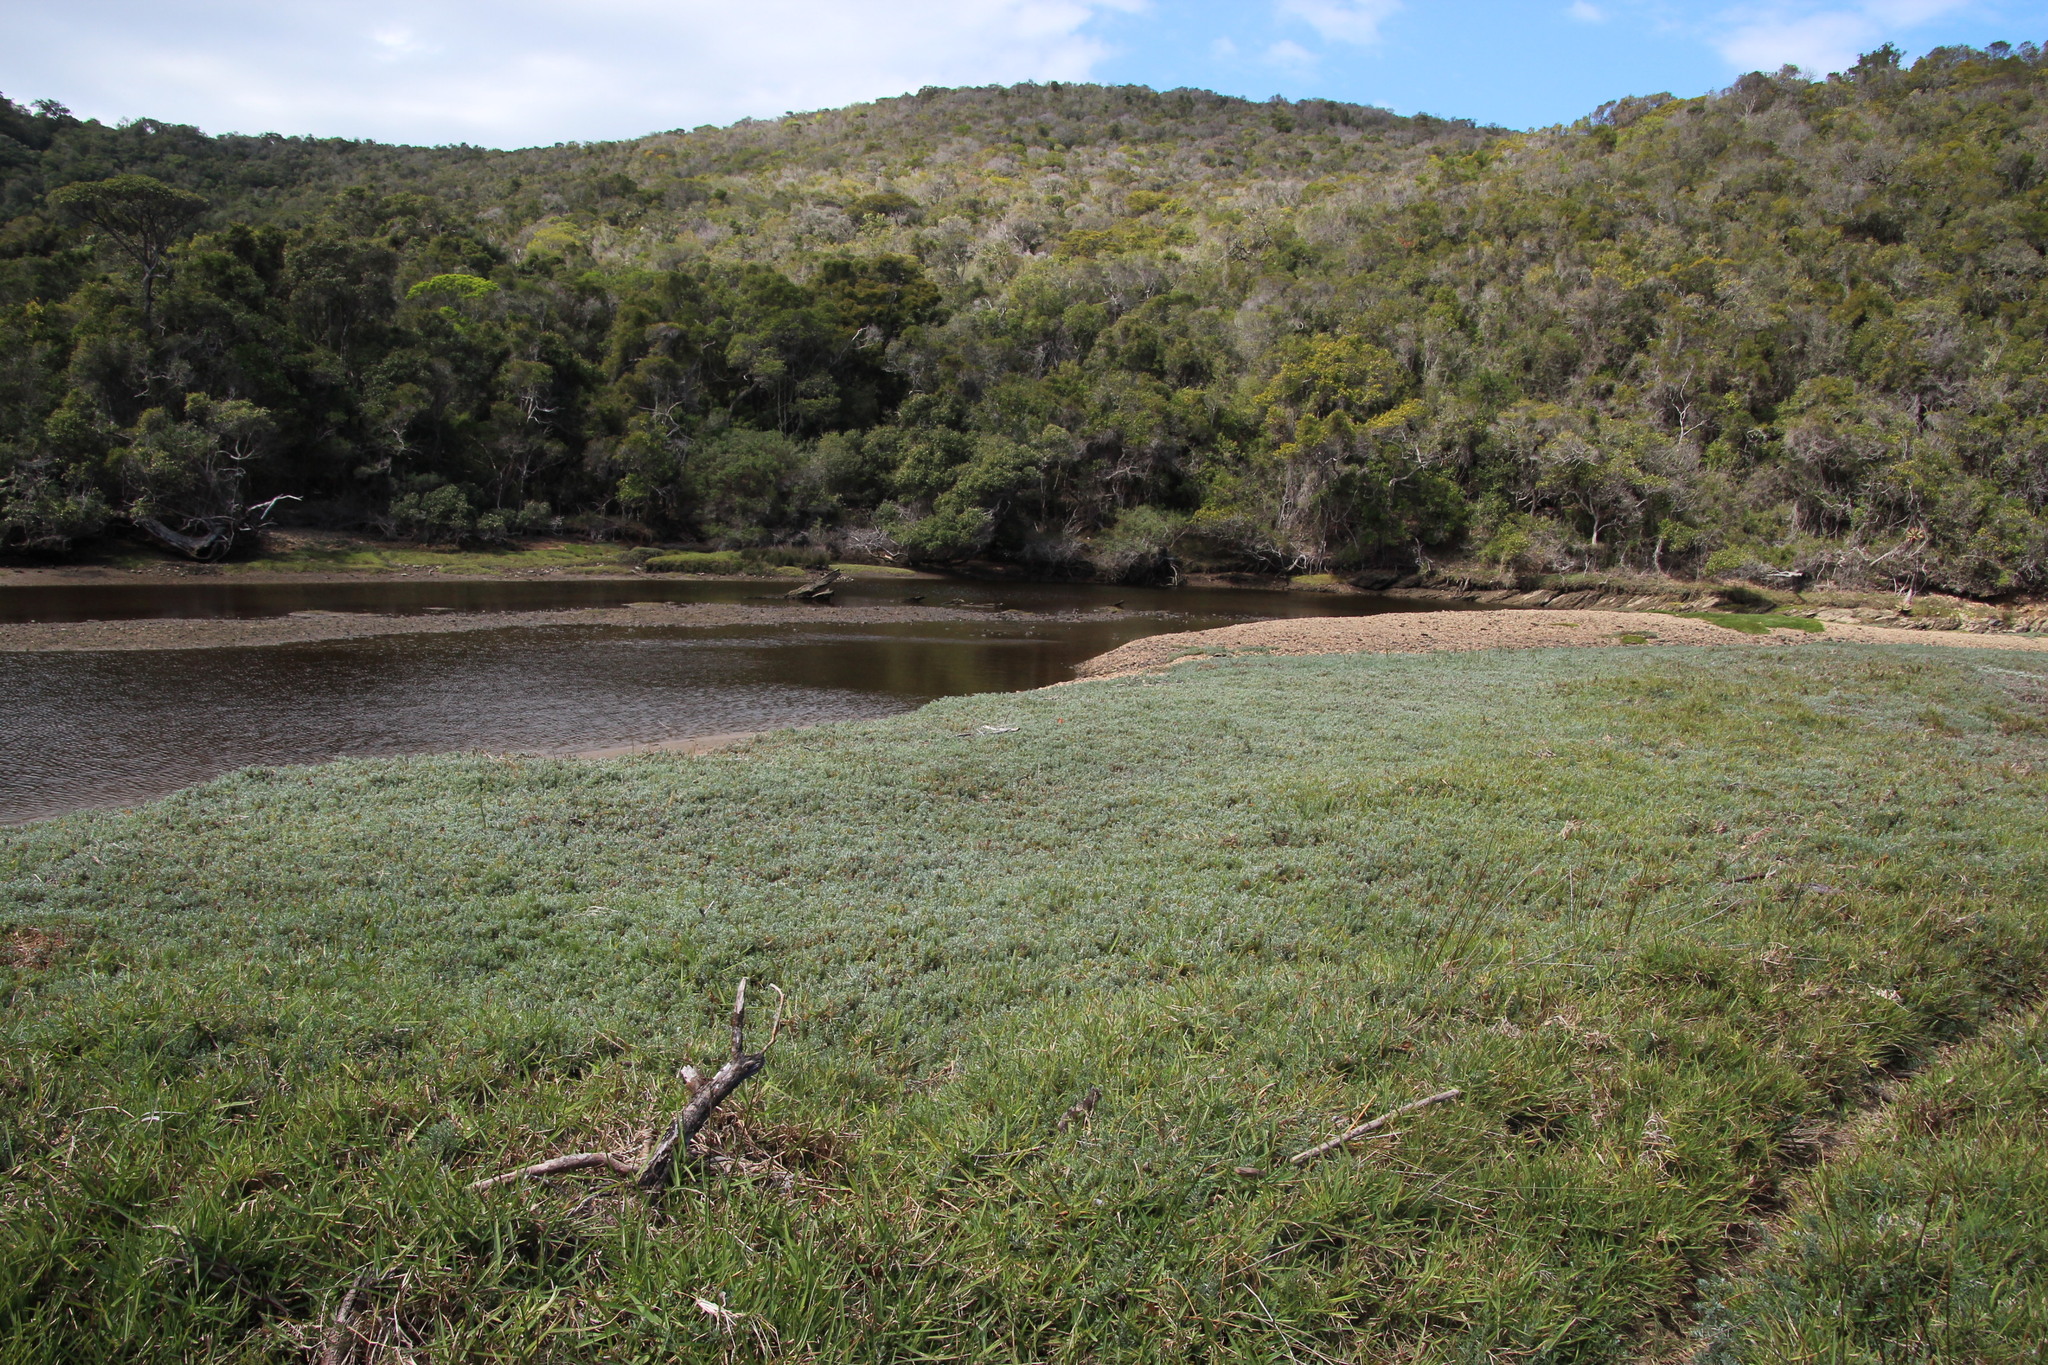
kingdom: Plantae
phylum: Tracheophyta
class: Liliopsida
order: Poales
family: Poaceae
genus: Stenotaphrum
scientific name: Stenotaphrum secundatum
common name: St. augustine grass
